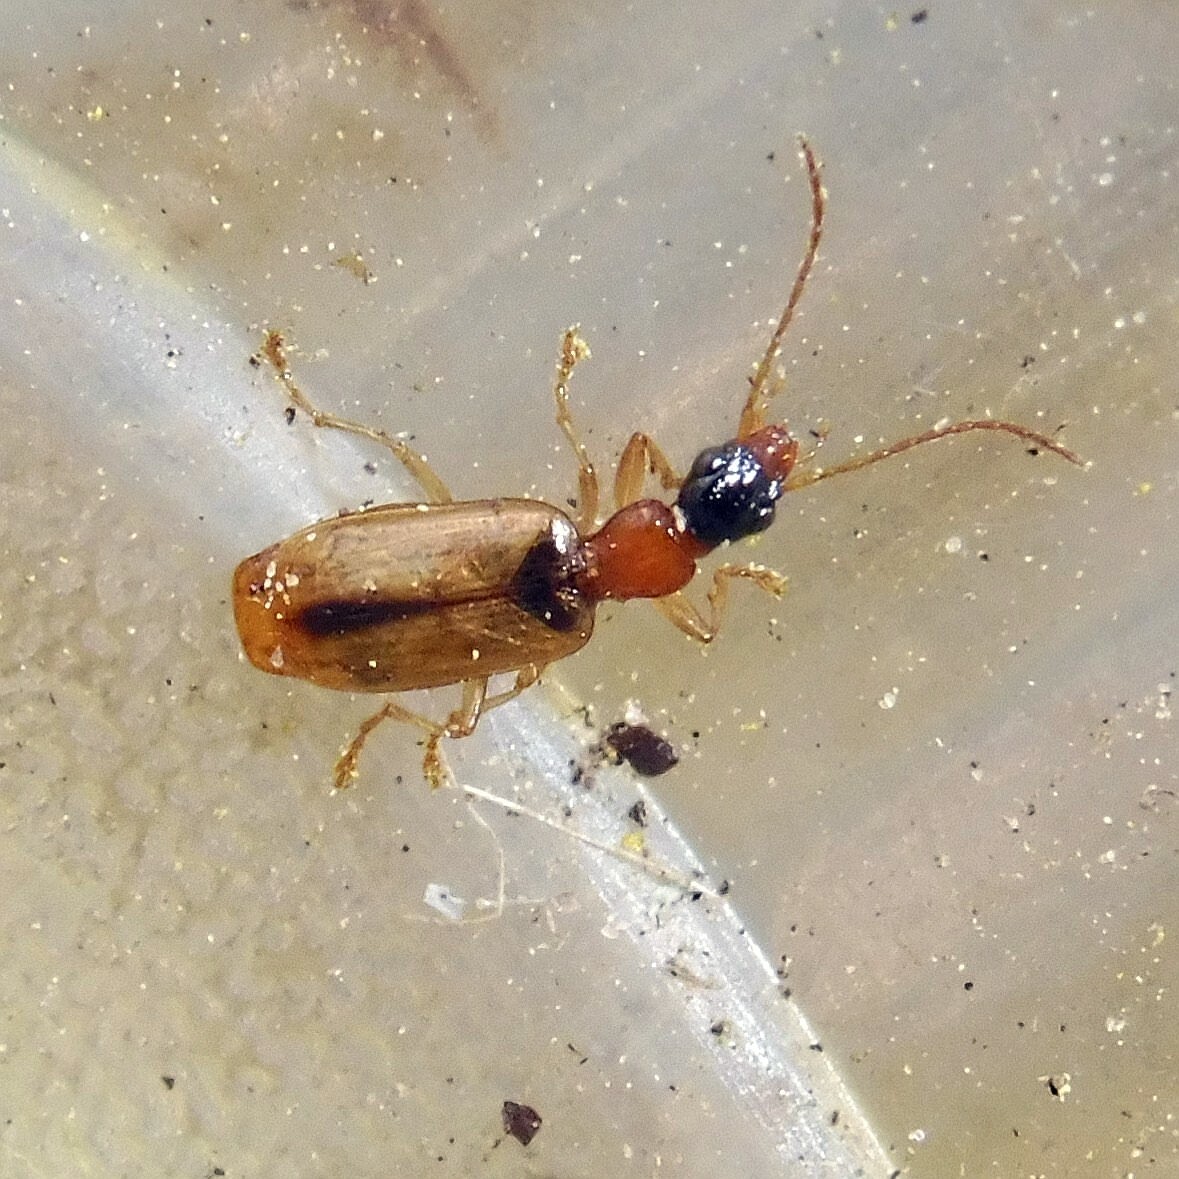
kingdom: Animalia
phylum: Arthropoda
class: Insecta
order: Coleoptera
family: Carabidae
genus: Demetrias
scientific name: Demetrias atricapillus
